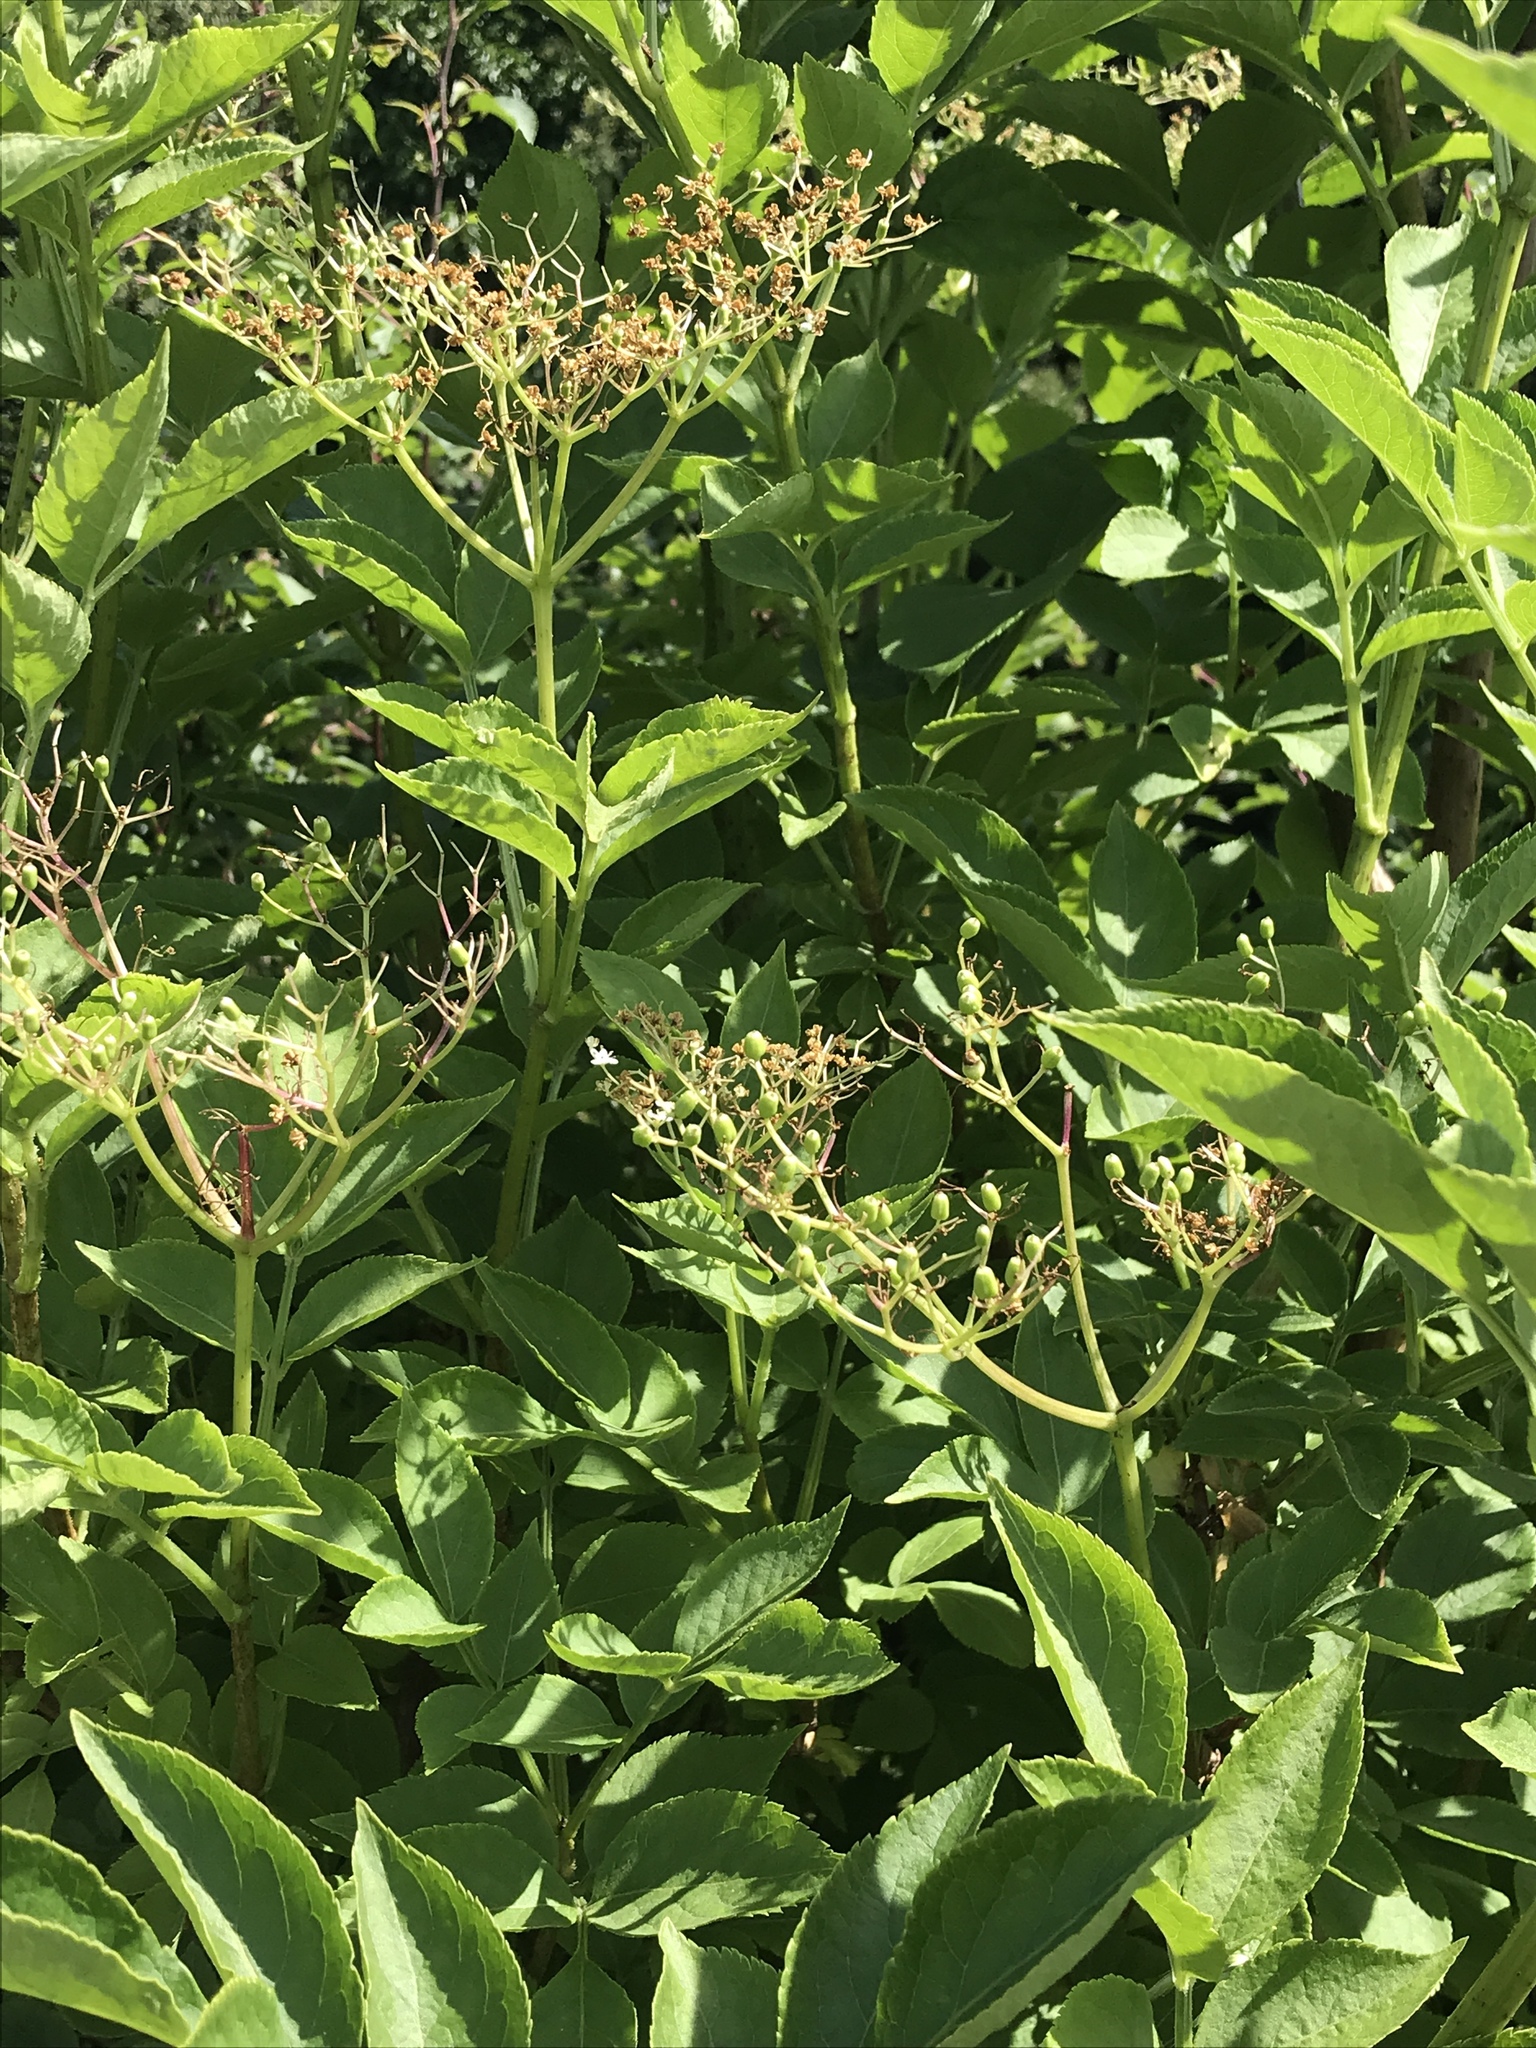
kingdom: Plantae
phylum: Tracheophyta
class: Magnoliopsida
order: Dipsacales
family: Viburnaceae
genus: Sambucus
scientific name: Sambucus nigra
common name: Elder
